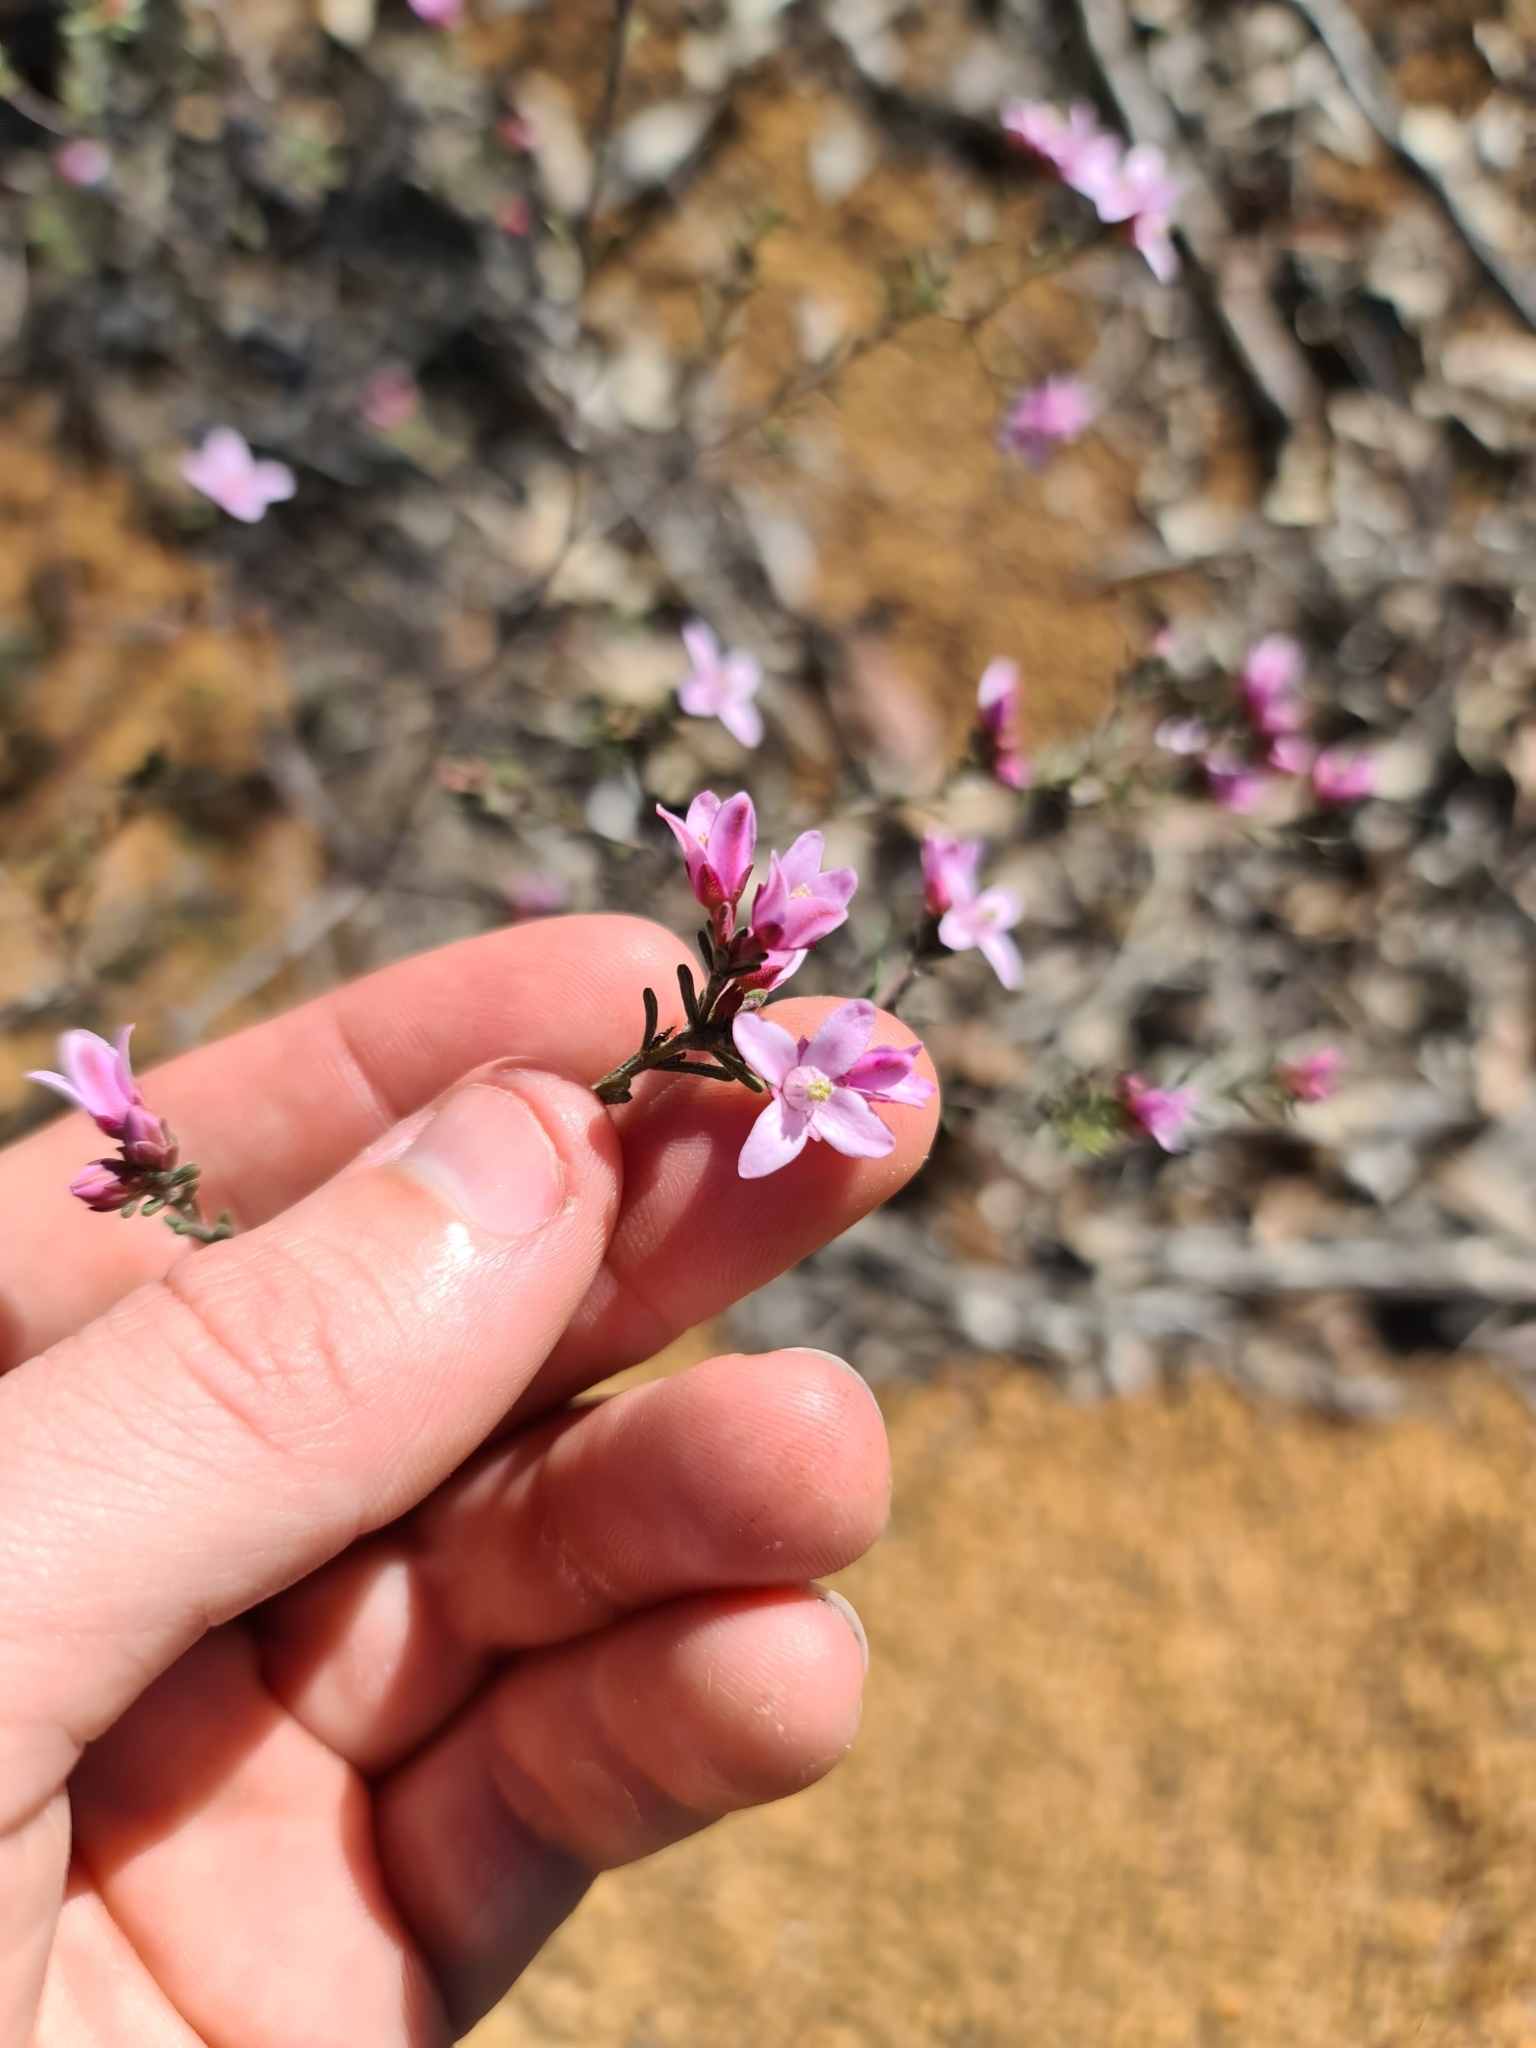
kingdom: Plantae
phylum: Tracheophyta
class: Magnoliopsida
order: Sapindales
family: Rutaceae
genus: Boronia
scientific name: Boronia capitata
